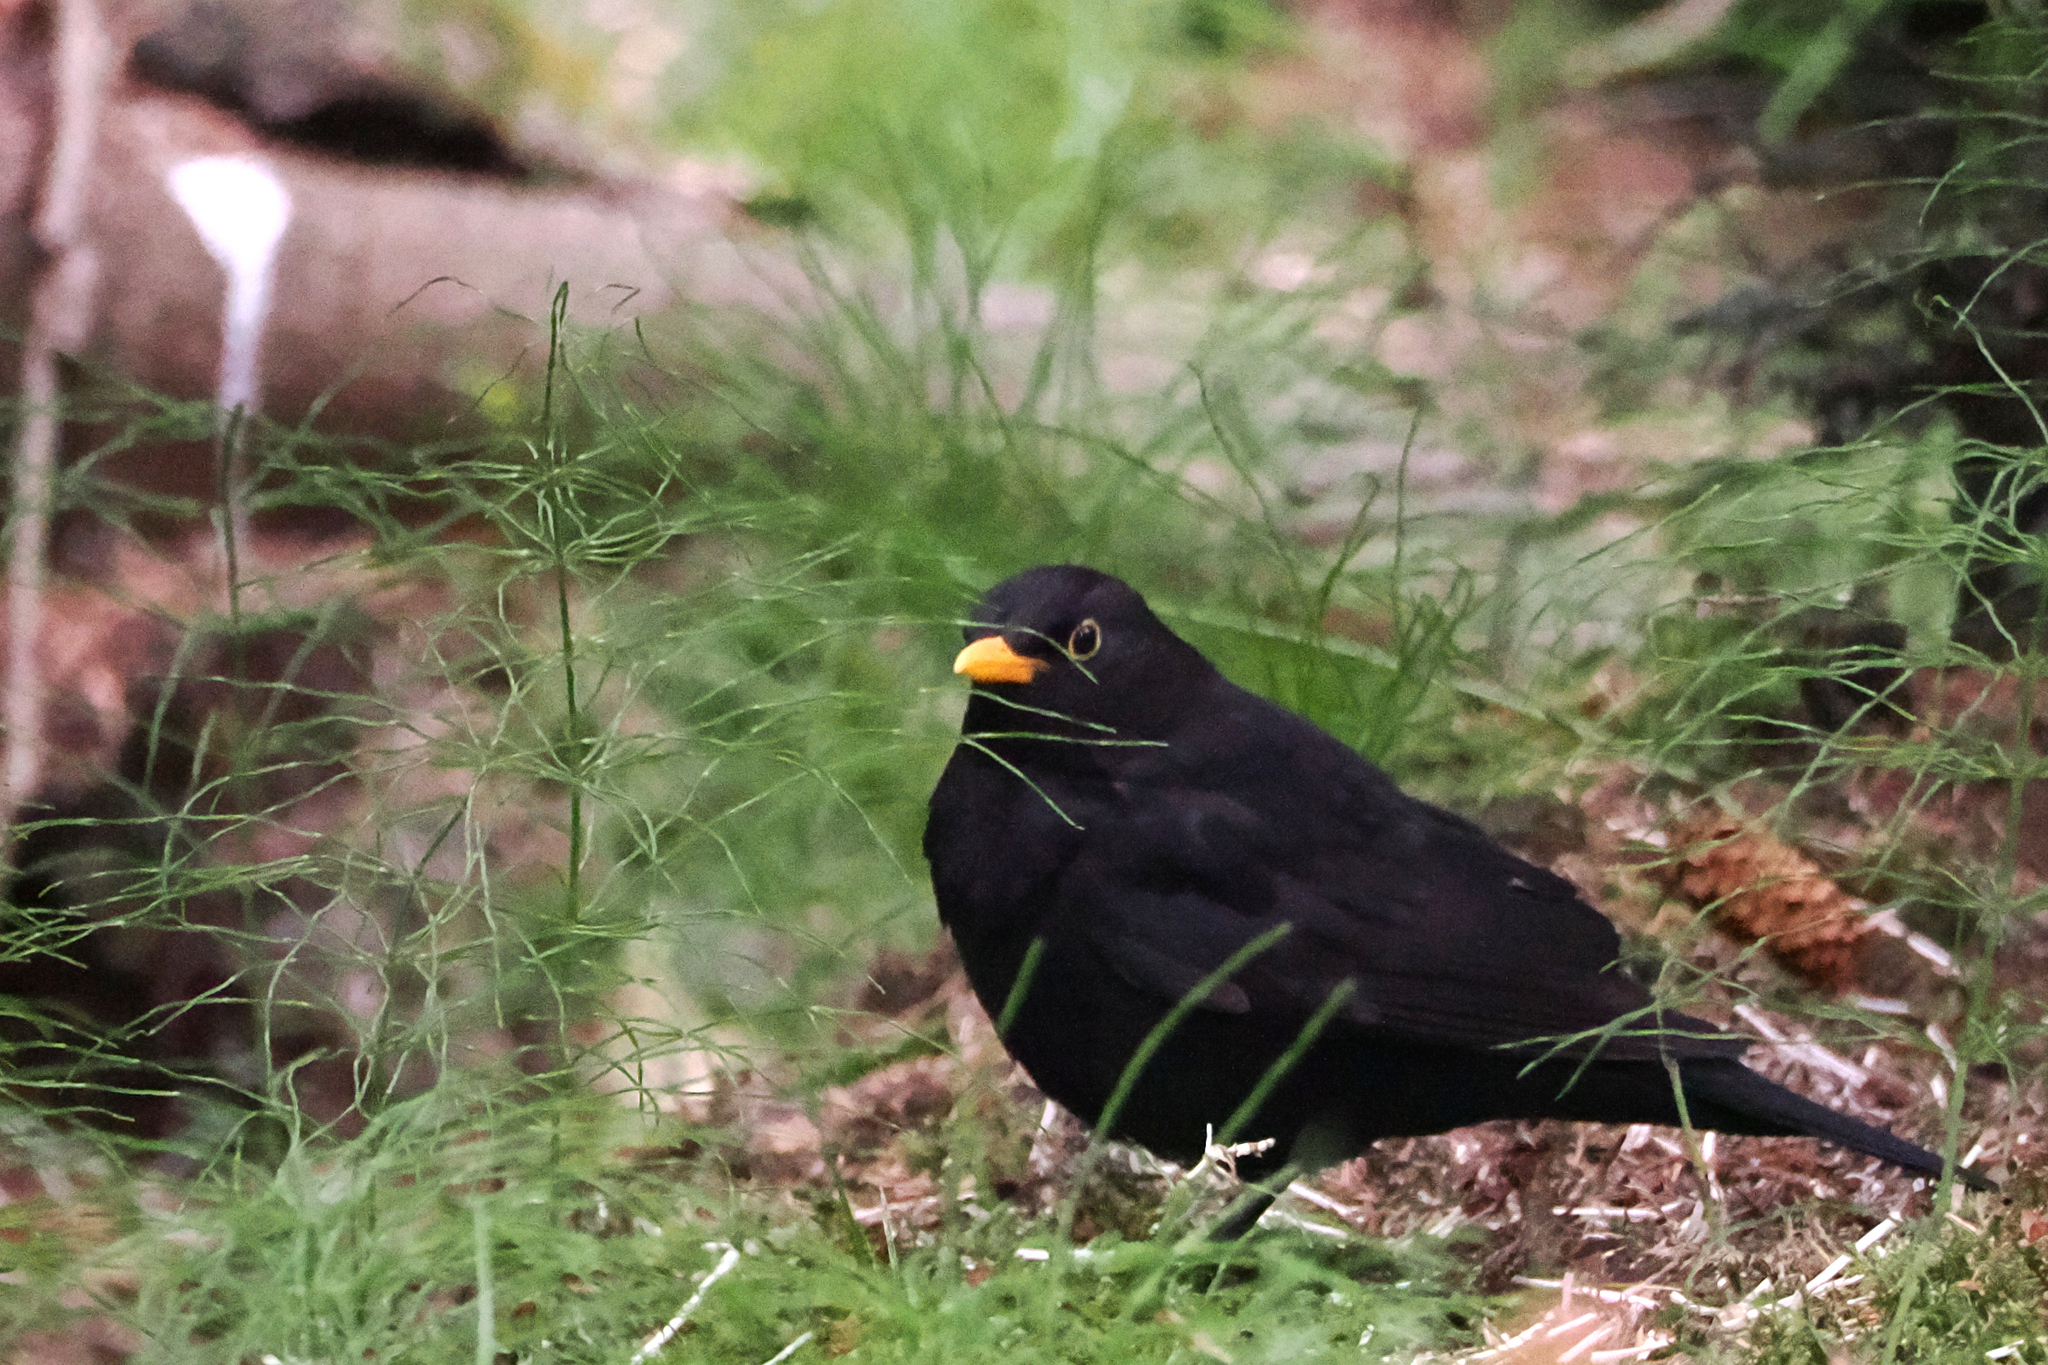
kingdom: Animalia
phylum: Chordata
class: Aves
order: Passeriformes
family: Turdidae
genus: Turdus
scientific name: Turdus merula
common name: Common blackbird
